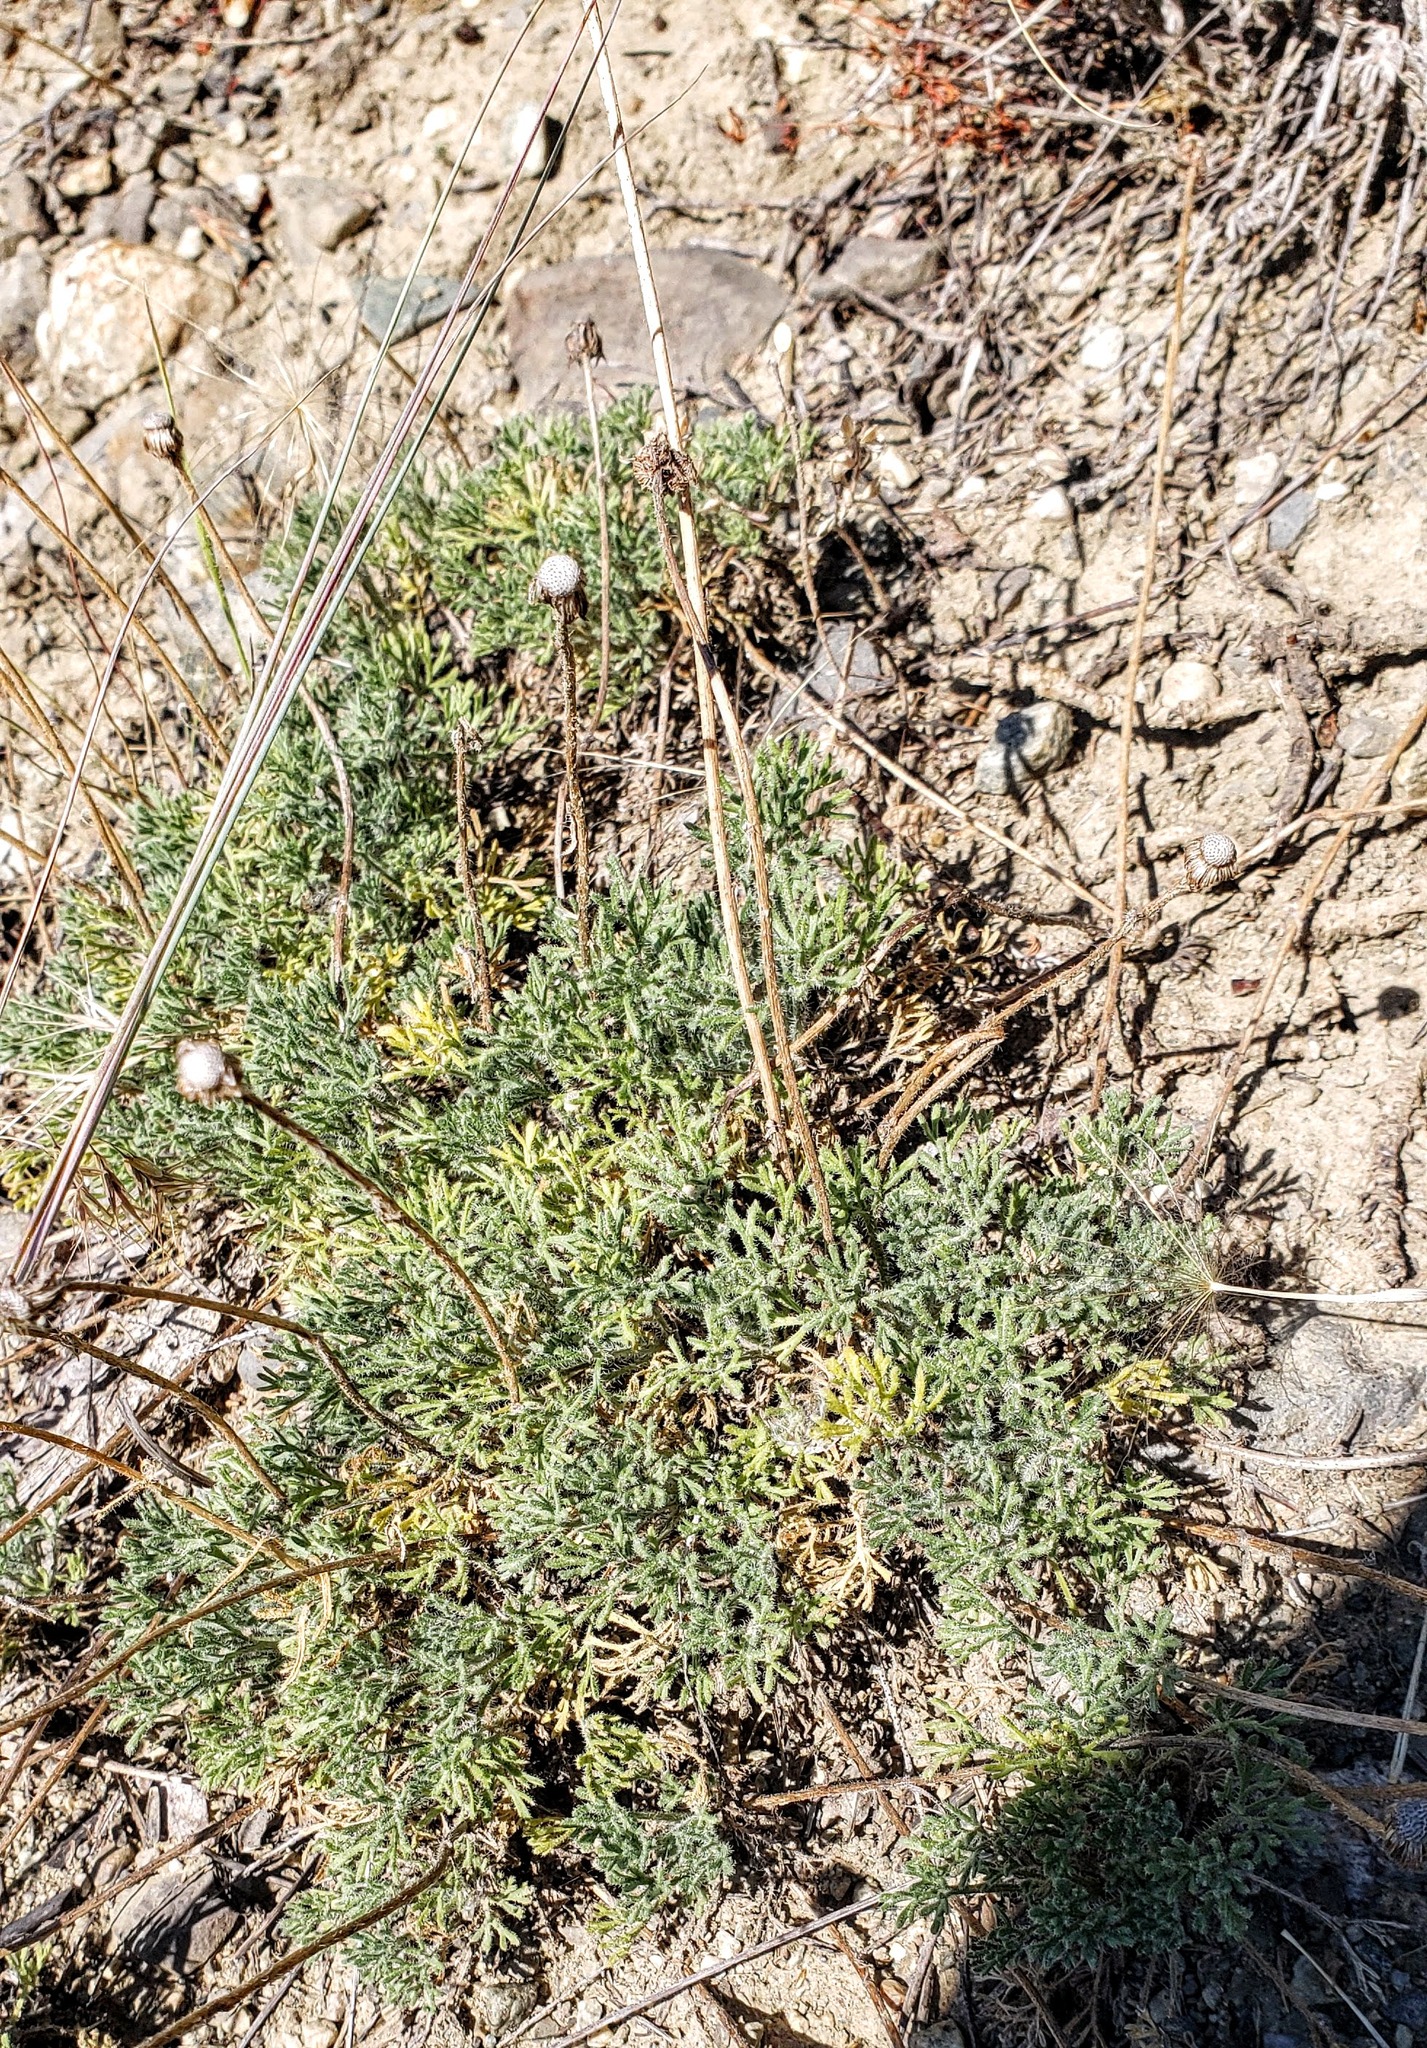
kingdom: Plantae
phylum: Tracheophyta
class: Magnoliopsida
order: Asterales
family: Asteraceae
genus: Erigeron
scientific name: Erigeron compositus
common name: Dwarf mountain fleabane
